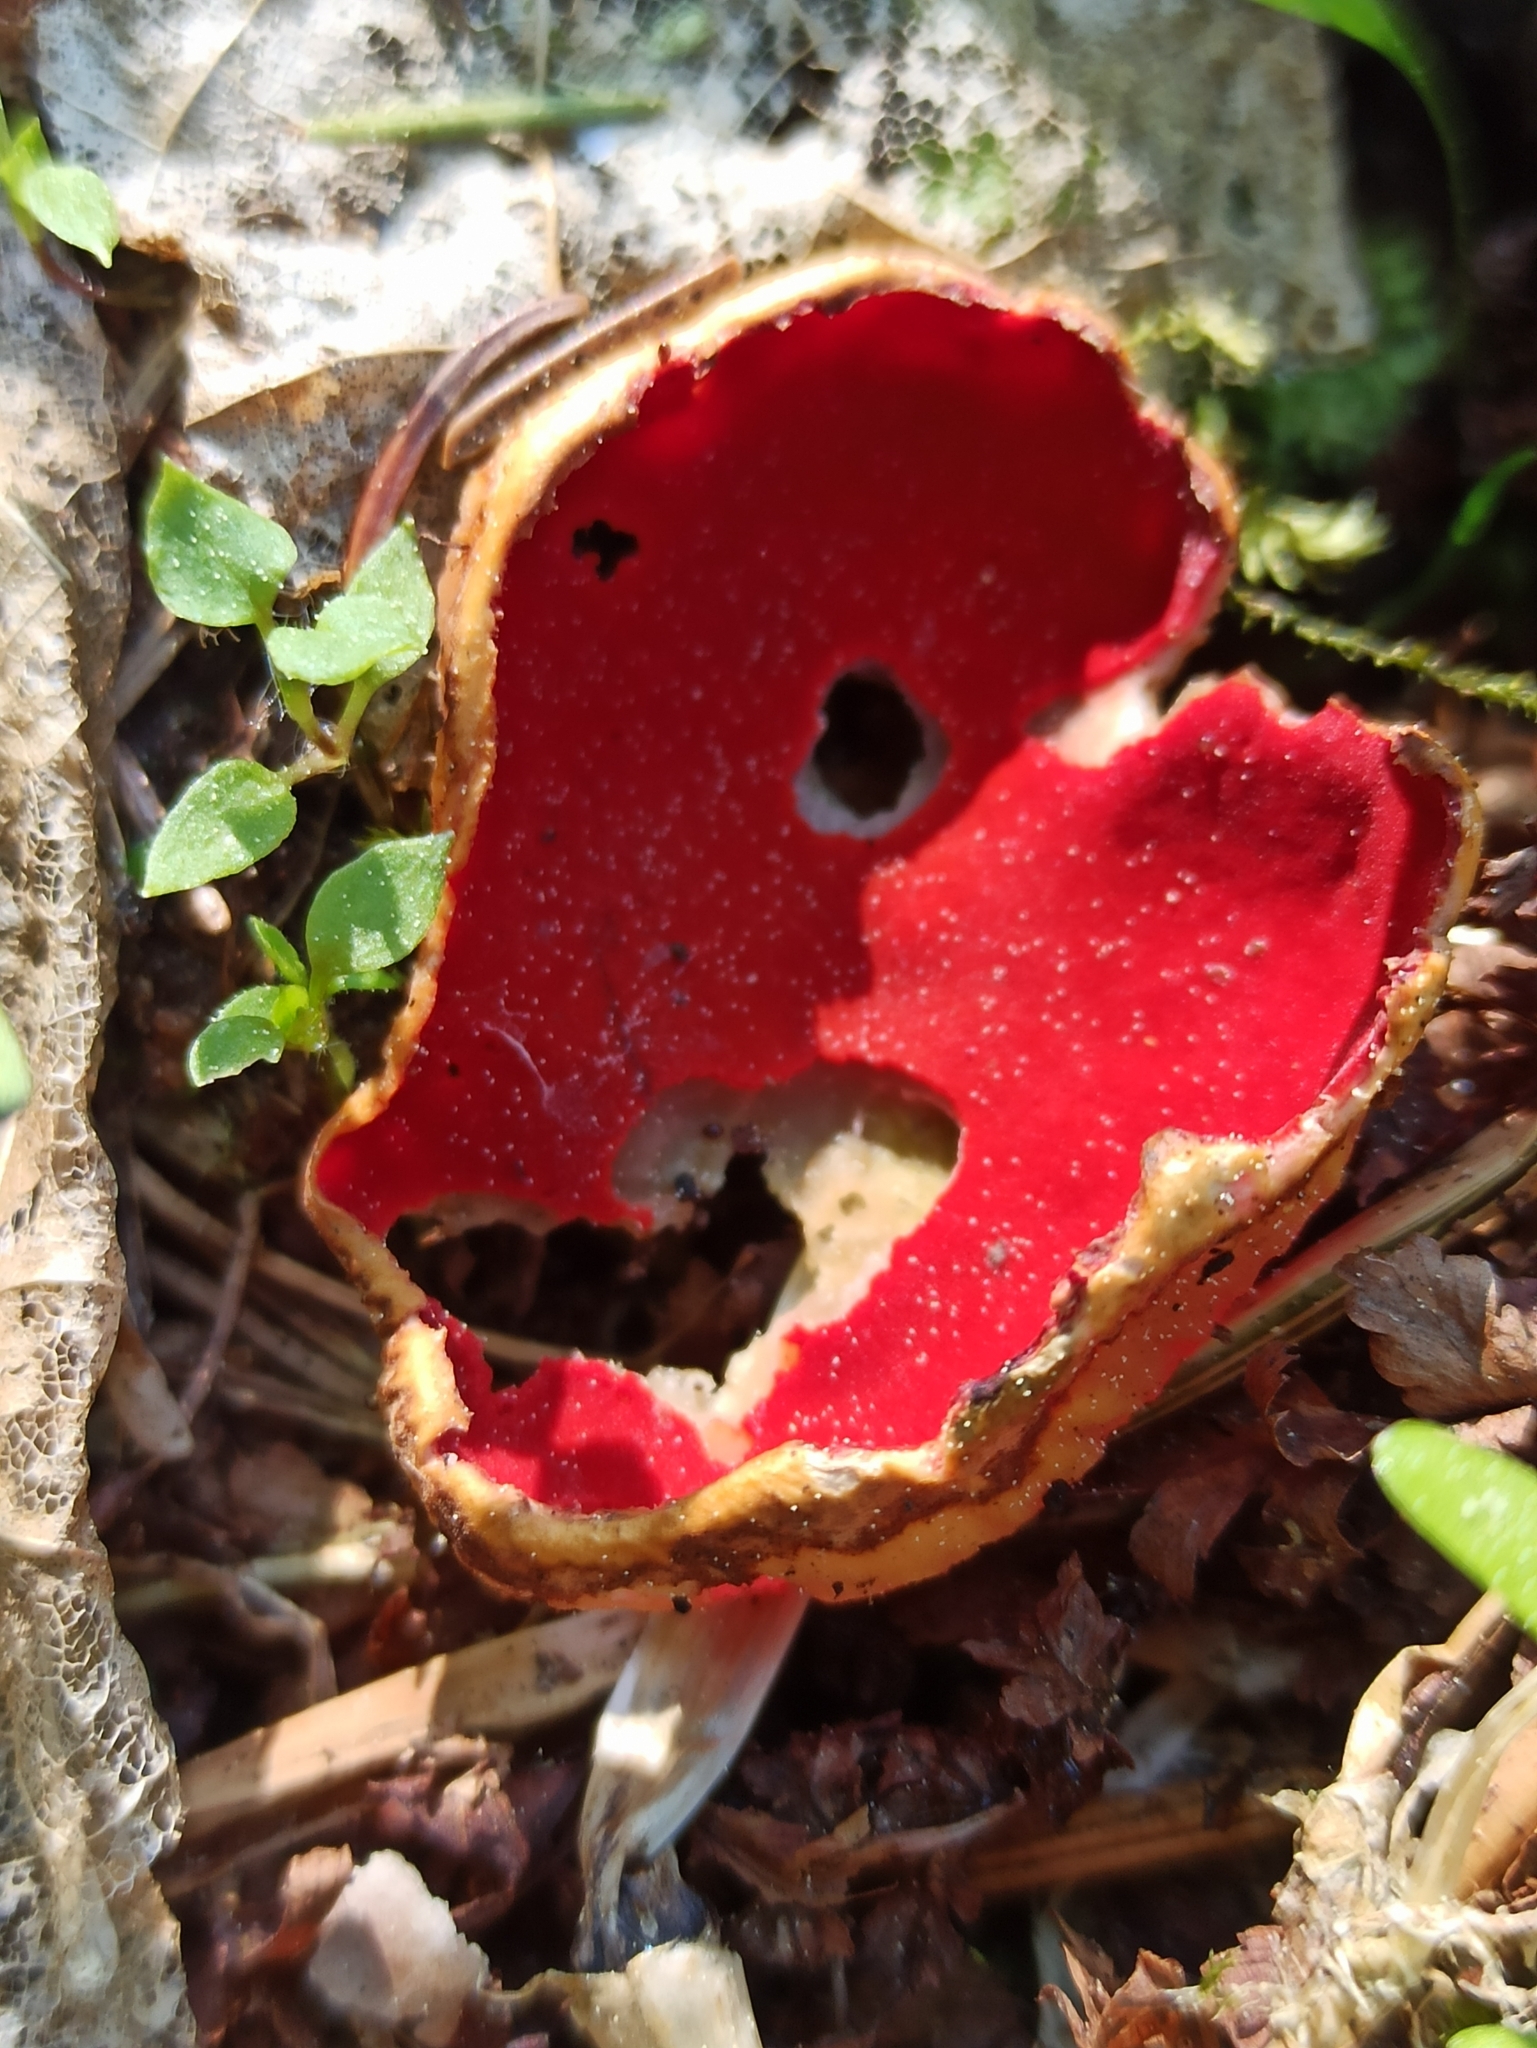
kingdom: Fungi
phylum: Ascomycota
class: Pezizomycetes
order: Pezizales
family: Sarcoscyphaceae
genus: Sarcoscypha
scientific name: Sarcoscypha austriaca
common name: Scarlet elfcup
